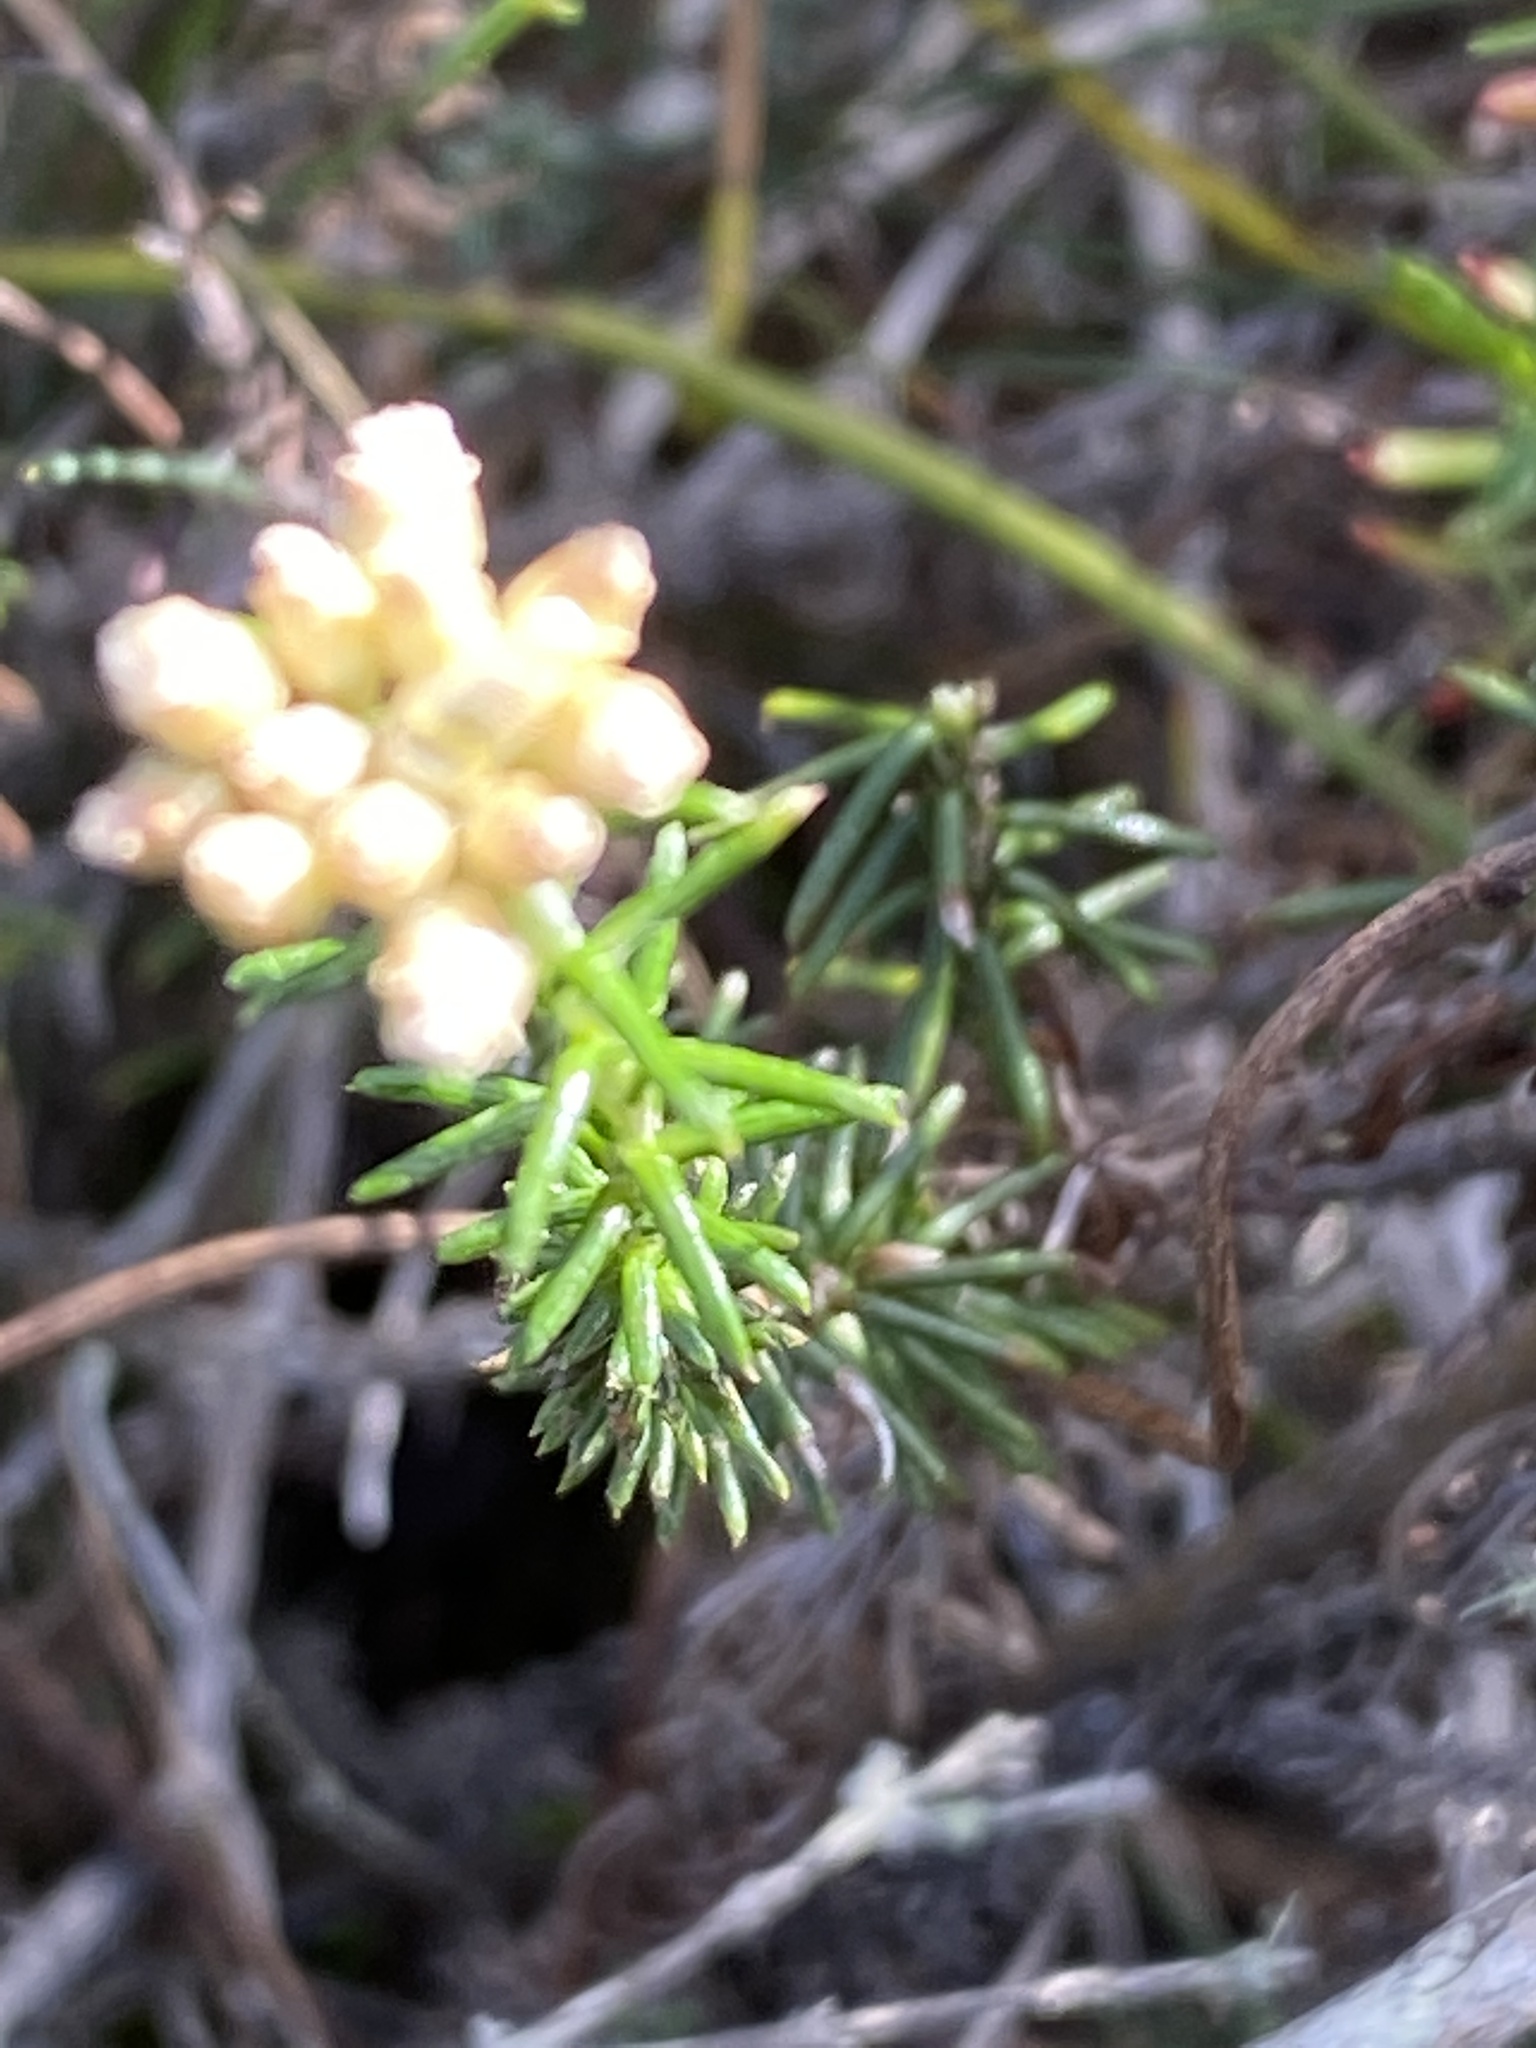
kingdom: Plantae
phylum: Tracheophyta
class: Magnoliopsida
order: Asterales
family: Asteraceae
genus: Helichrysum
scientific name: Helichrysum teretifolium
